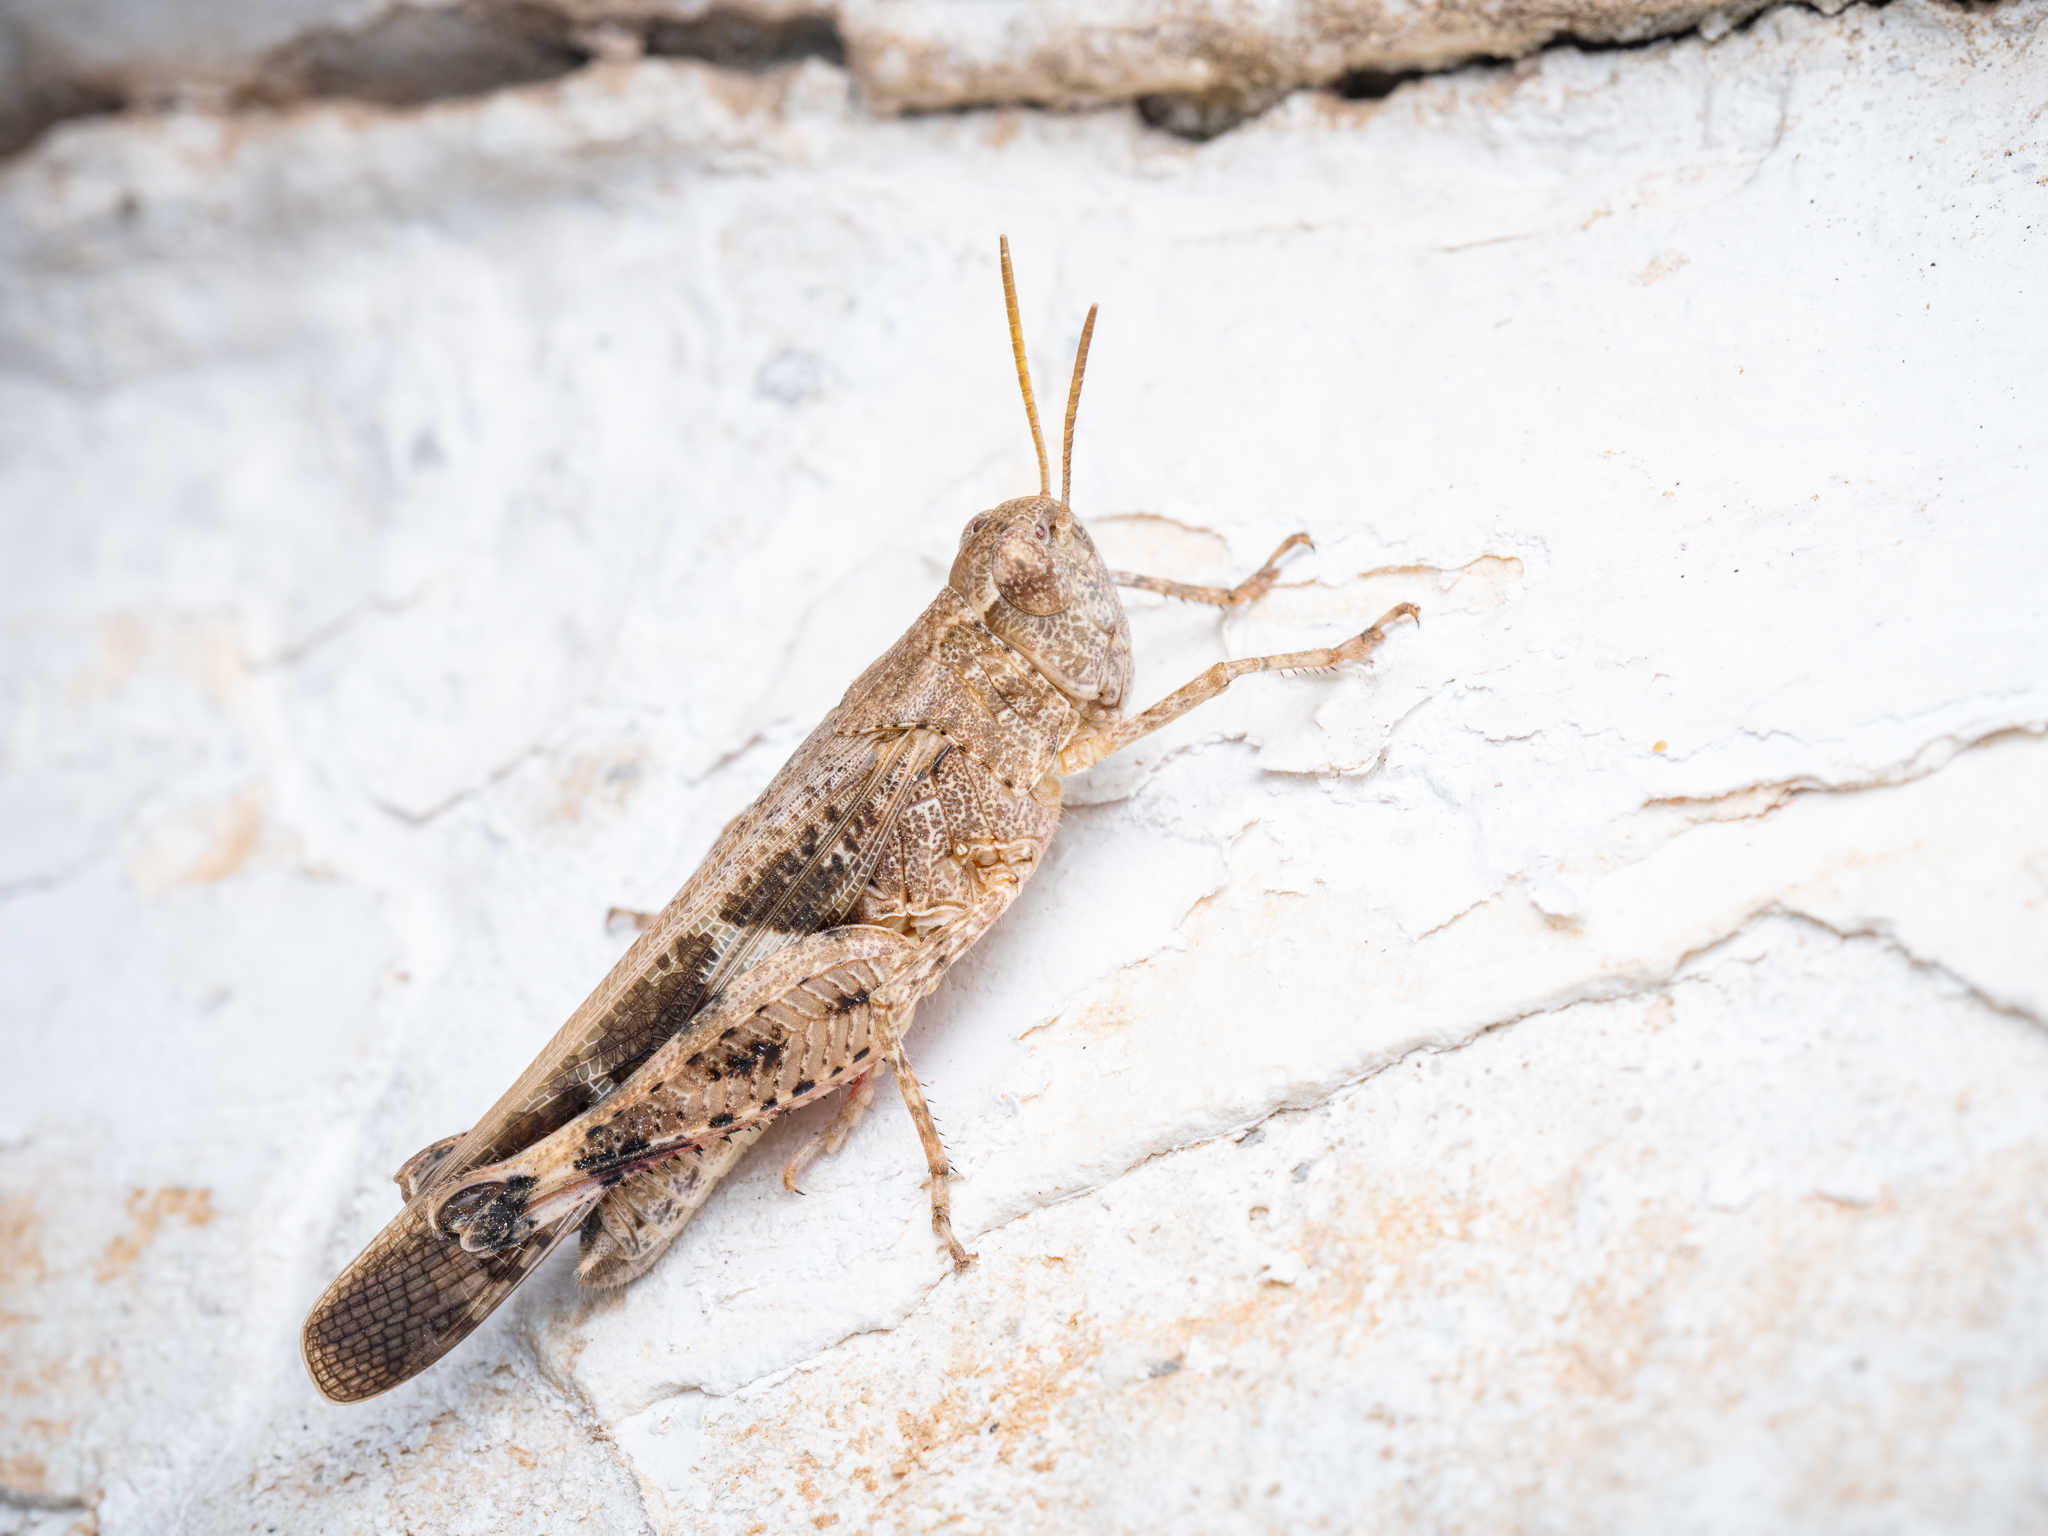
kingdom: Animalia
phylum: Arthropoda
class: Insecta
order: Orthoptera
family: Acrididae
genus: Aiolopus
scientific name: Aiolopus strepens
